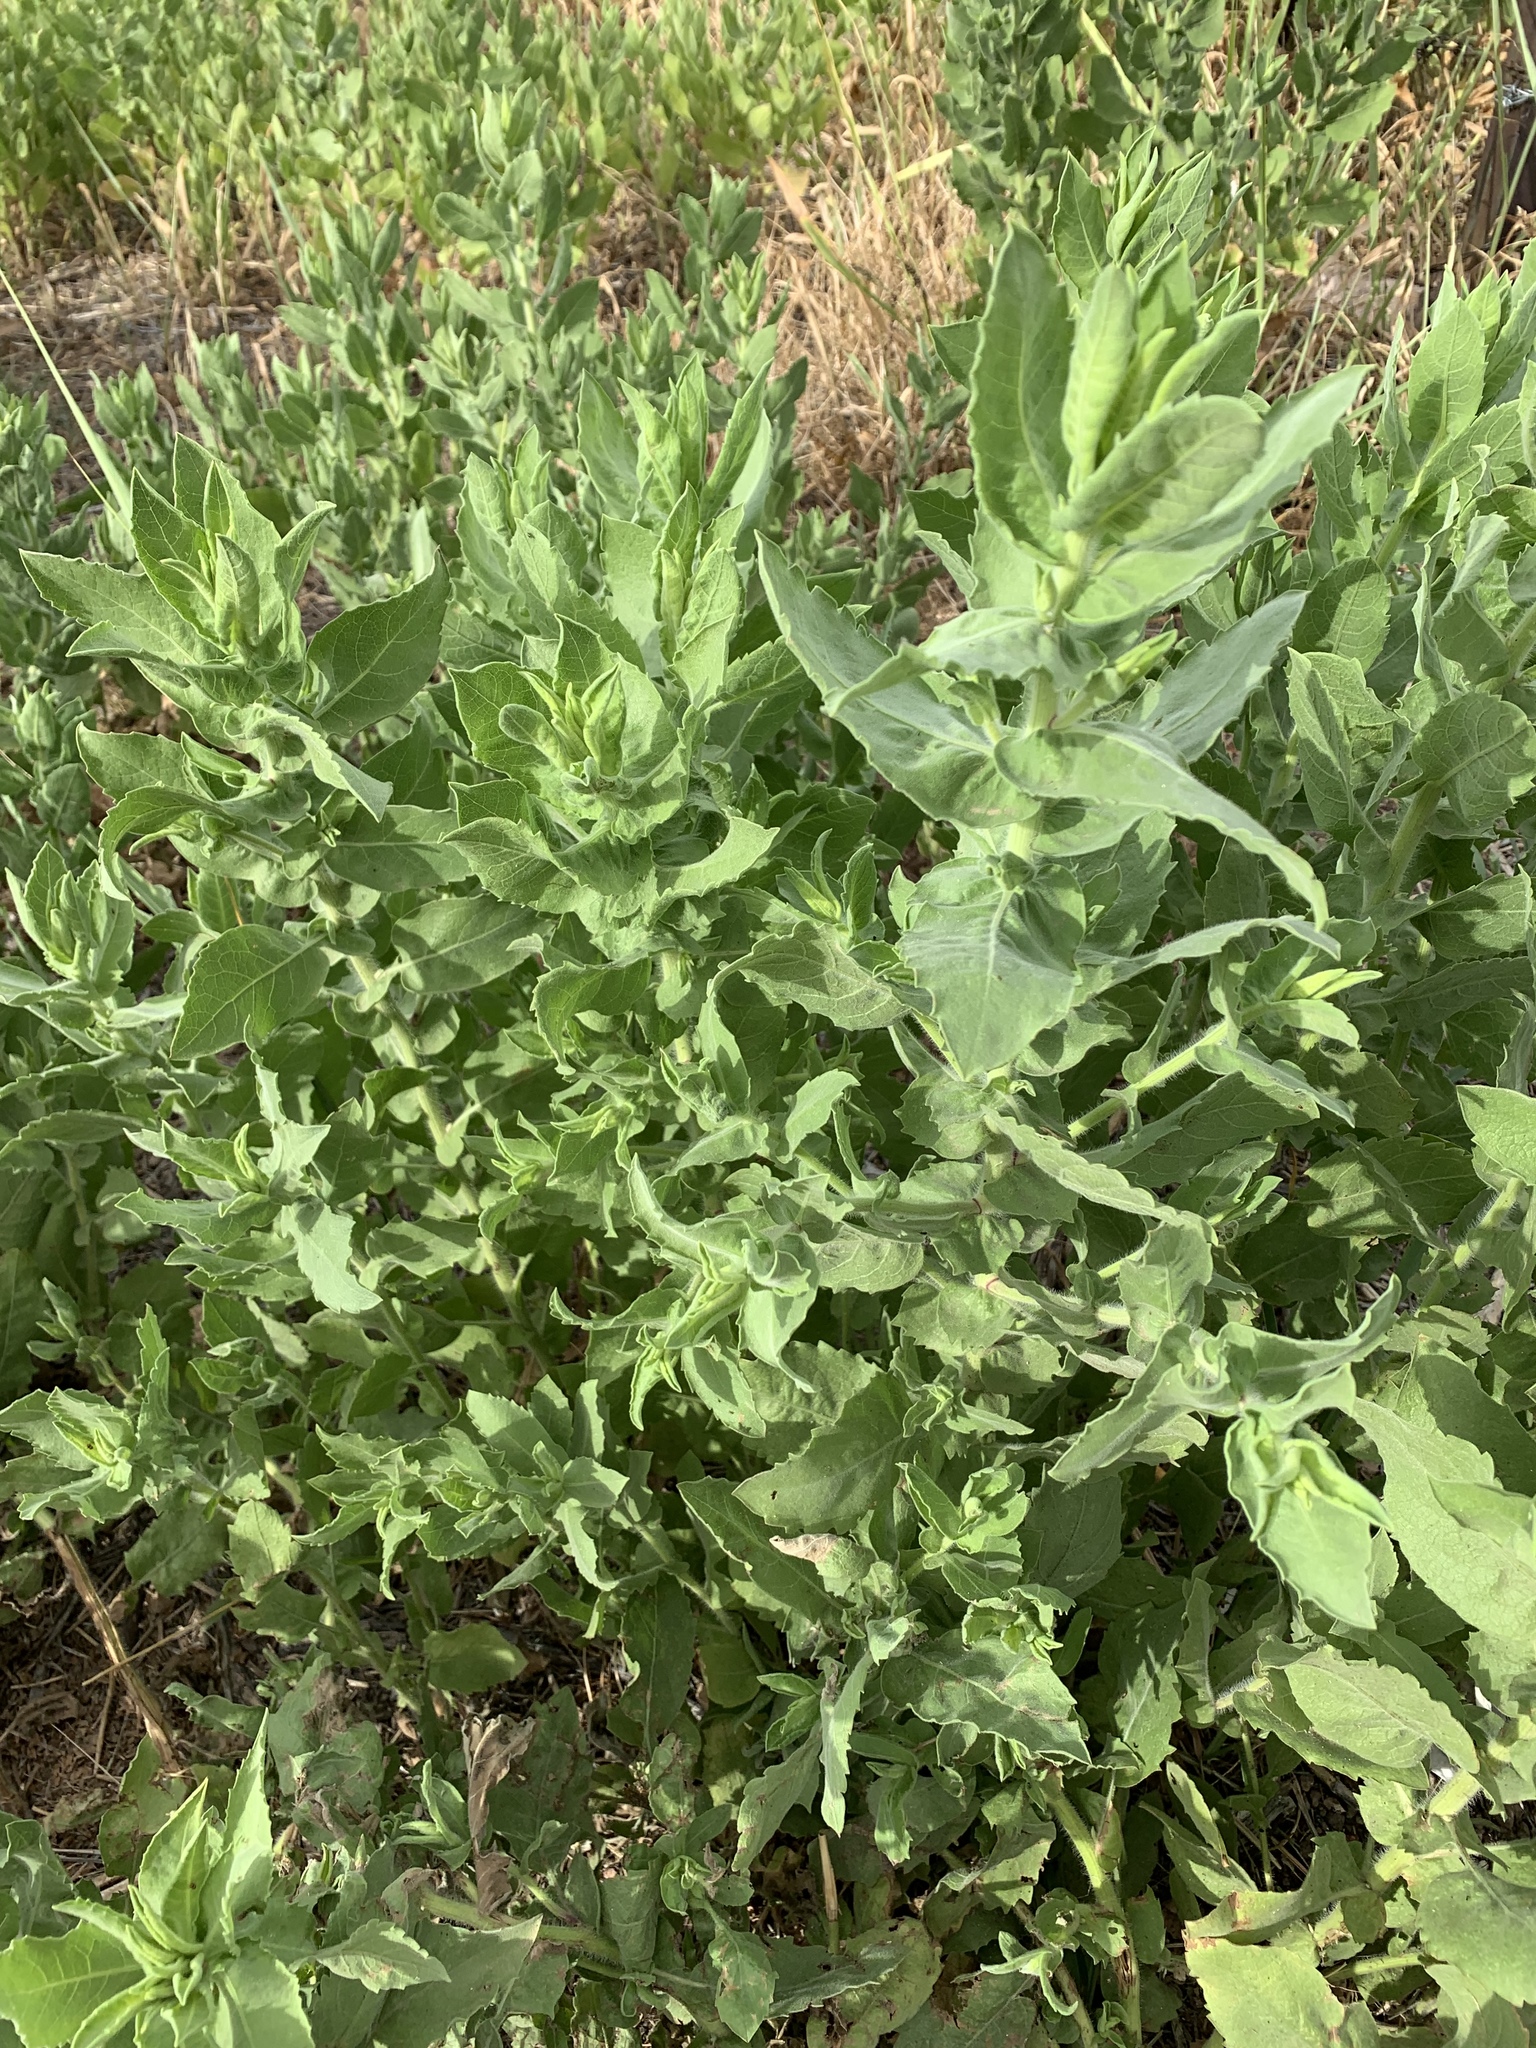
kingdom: Plantae
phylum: Tracheophyta
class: Magnoliopsida
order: Asterales
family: Asteraceae
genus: Heterotheca
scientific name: Heterotheca subaxillaris
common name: Camphorweed
